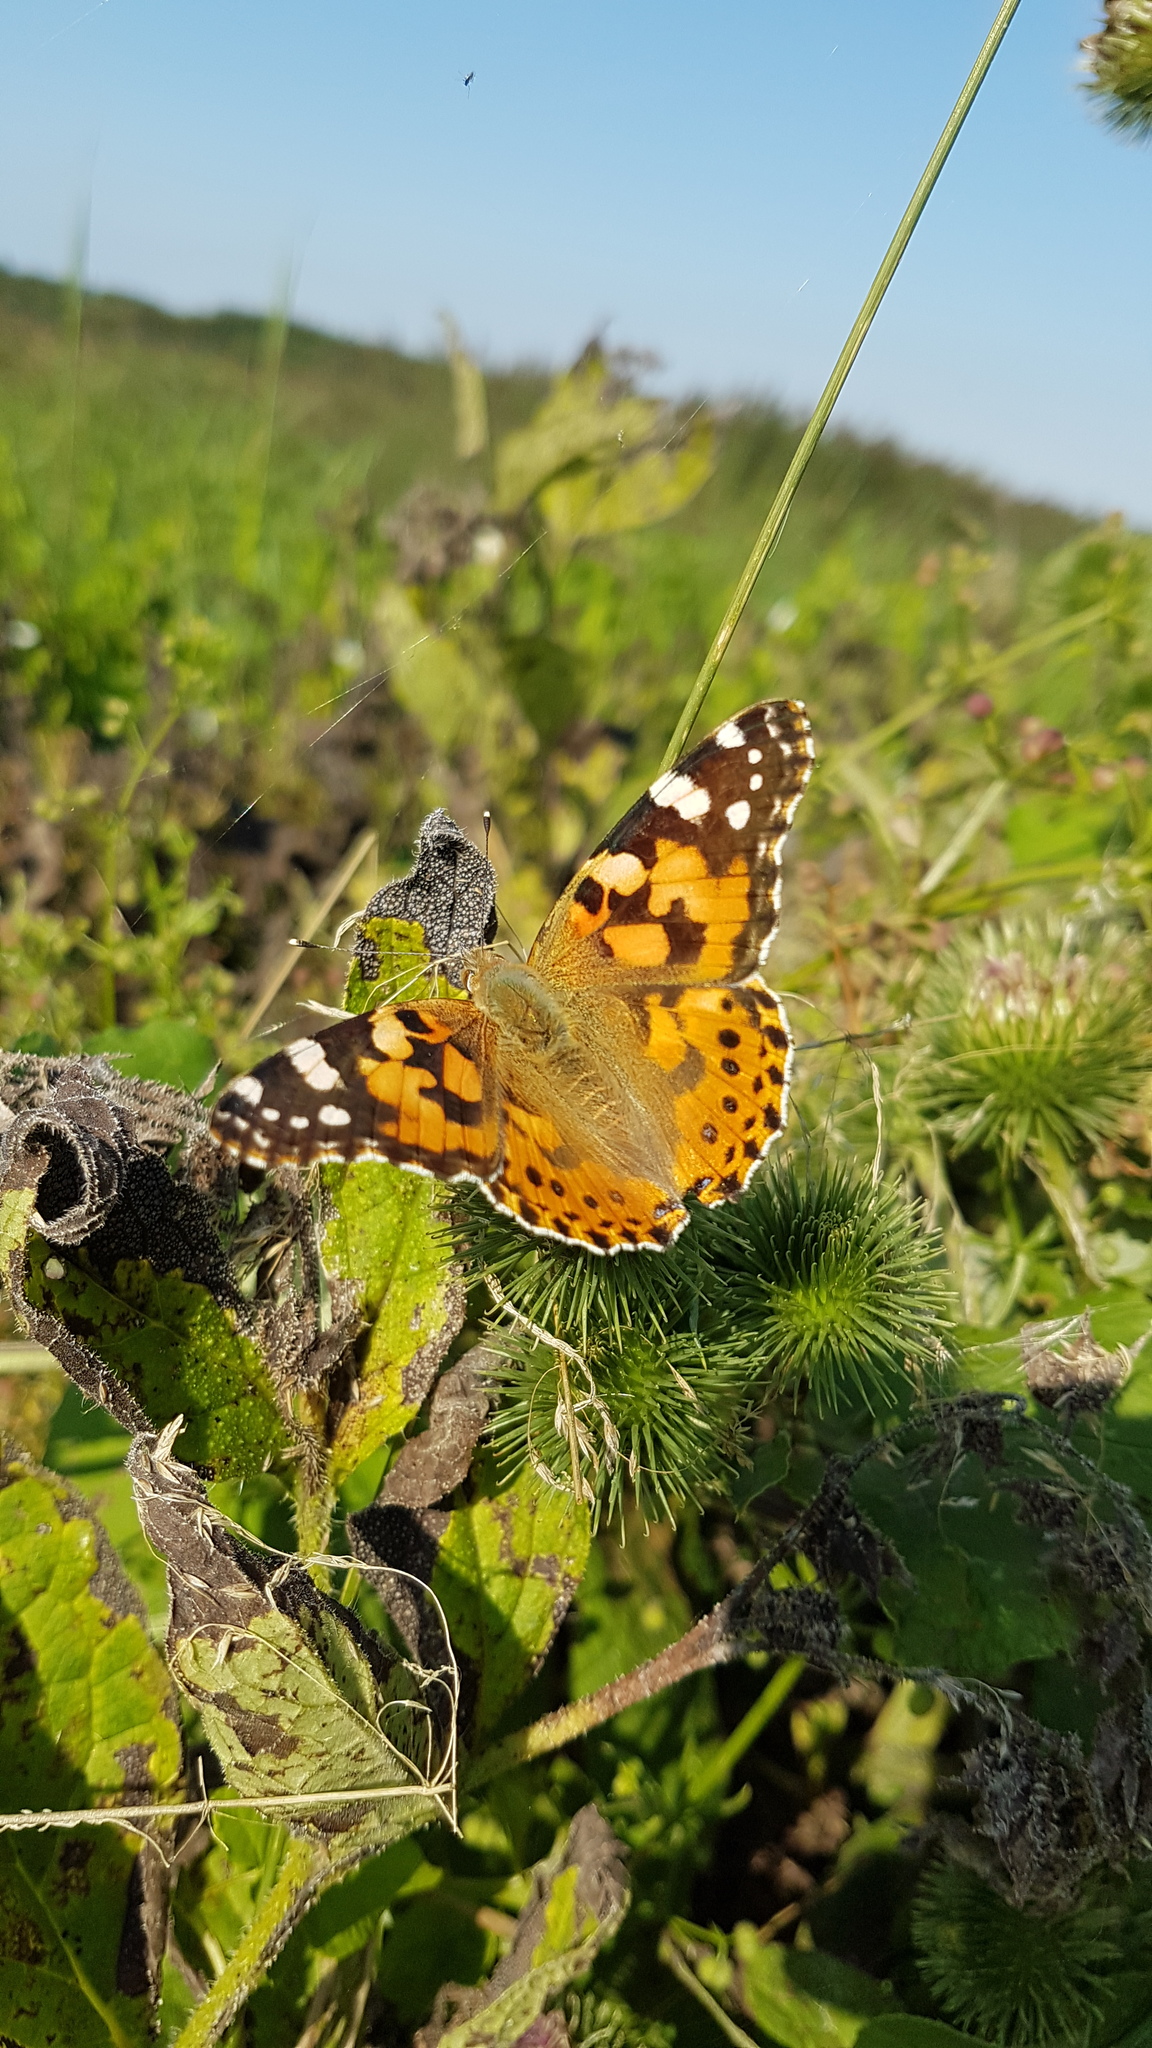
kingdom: Animalia
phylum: Arthropoda
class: Insecta
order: Lepidoptera
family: Nymphalidae
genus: Vanessa
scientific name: Vanessa cardui
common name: Painted lady
